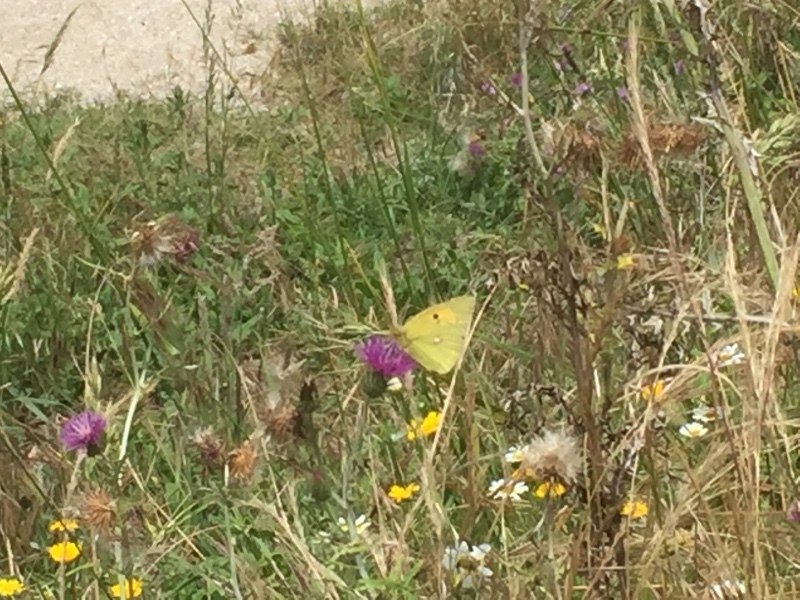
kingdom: Animalia
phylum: Arthropoda
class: Insecta
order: Lepidoptera
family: Pieridae
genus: Colias
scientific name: Colias croceus
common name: Clouded yellow
